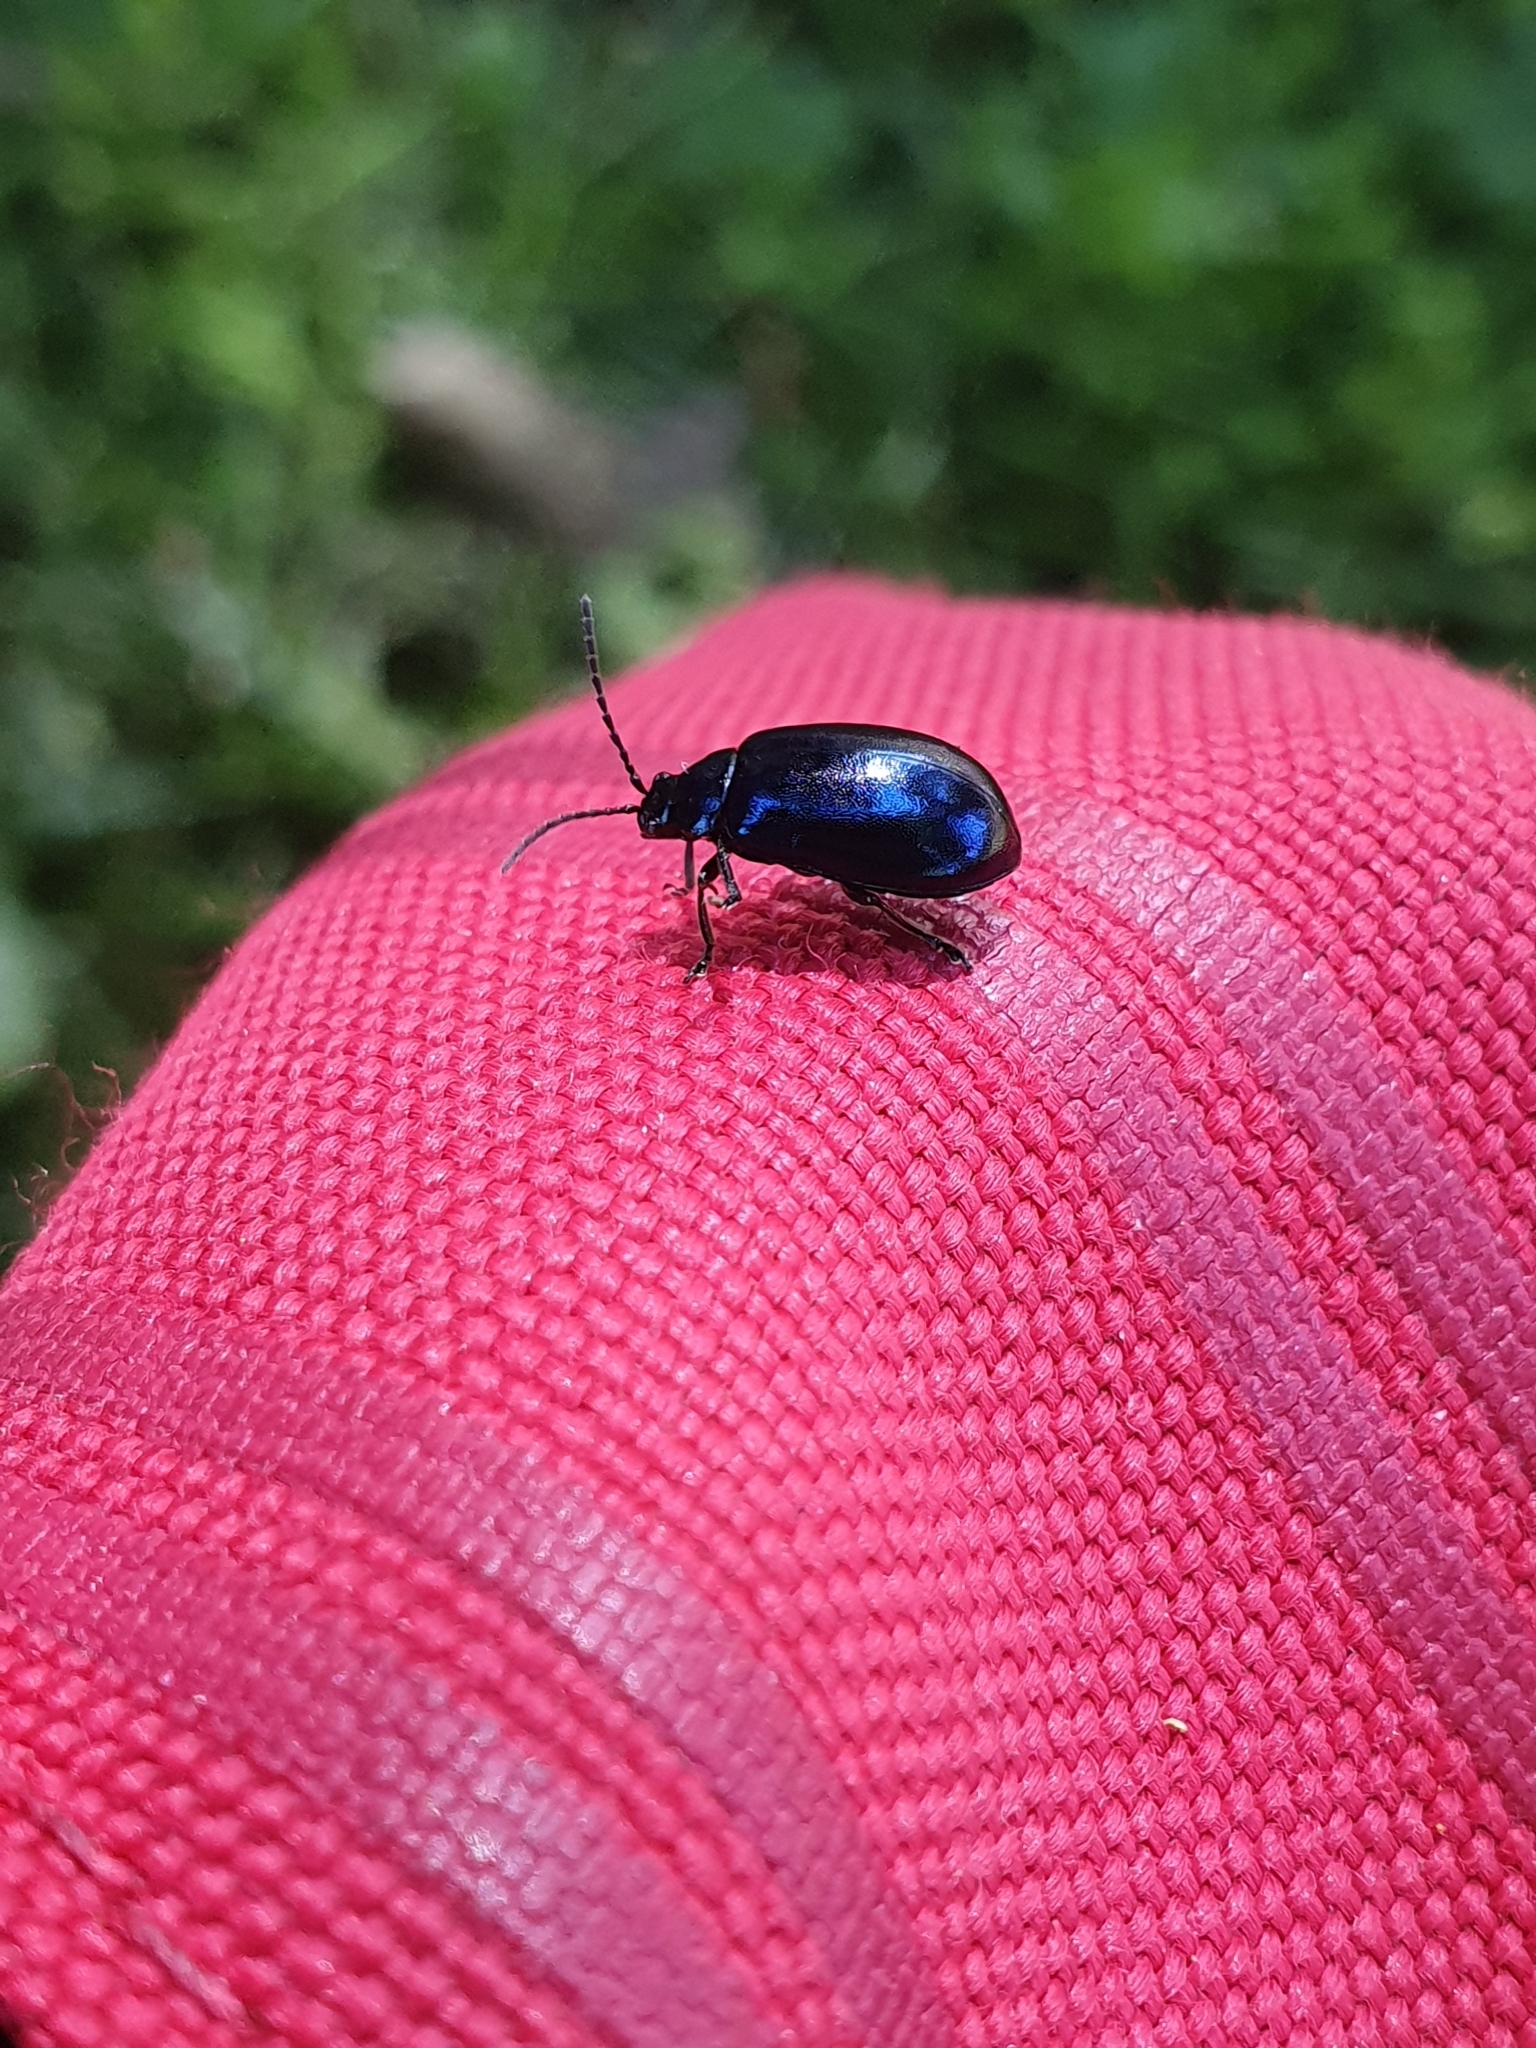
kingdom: Animalia
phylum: Arthropoda
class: Insecta
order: Coleoptera
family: Chrysomelidae
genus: Agelastica
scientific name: Agelastica alni
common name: Alder leaf beetle
